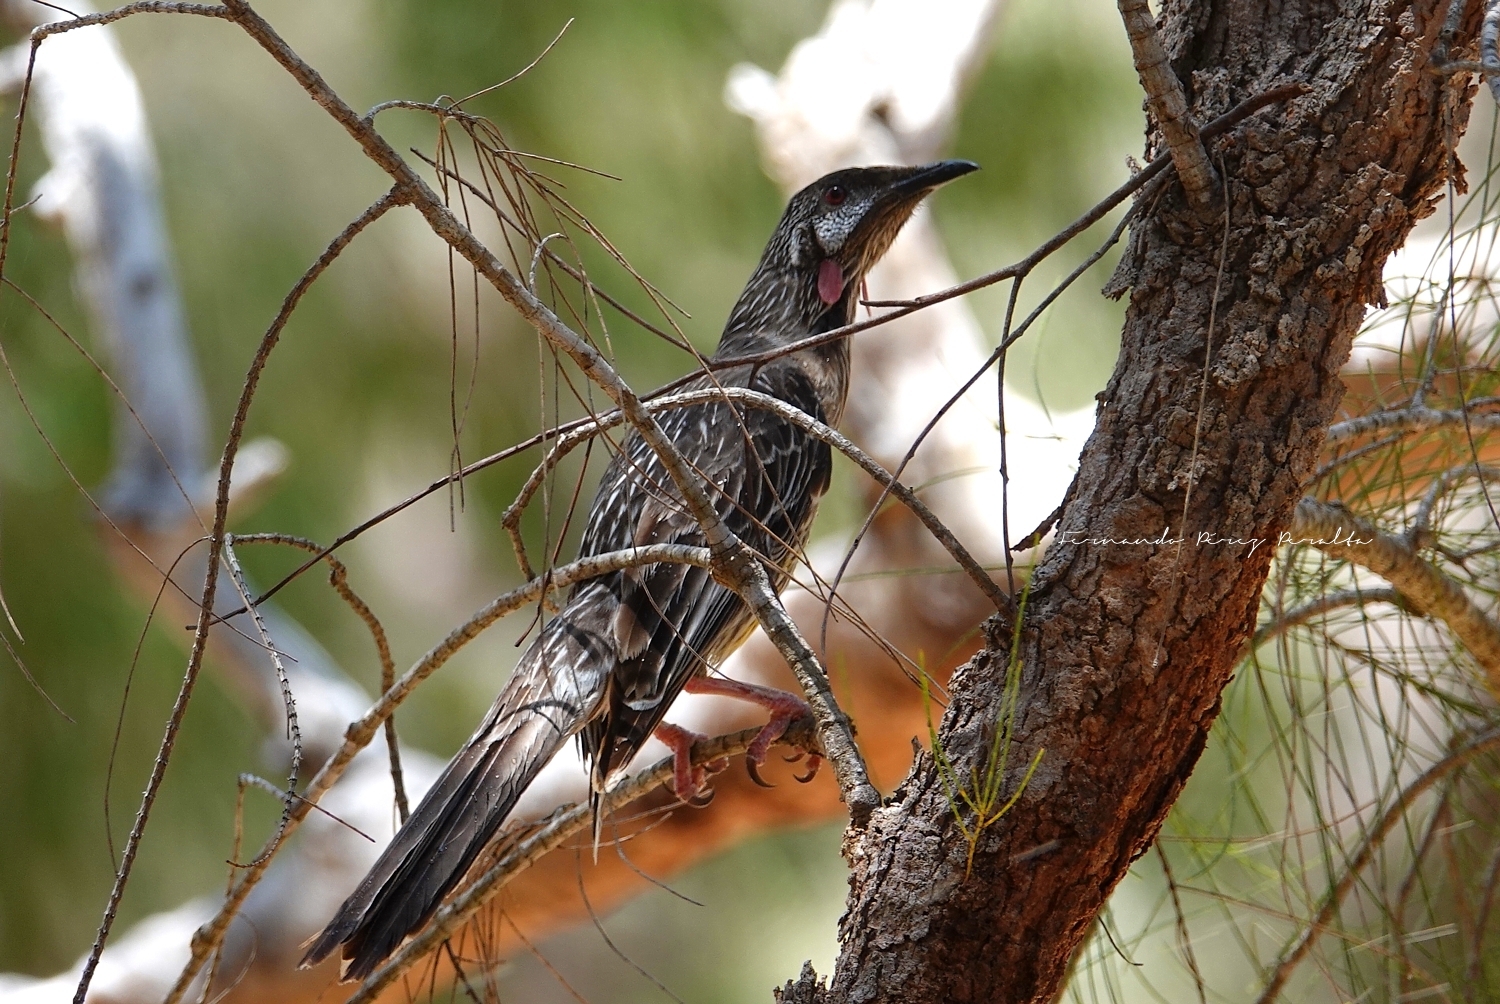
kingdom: Animalia
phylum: Chordata
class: Aves
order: Passeriformes
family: Meliphagidae
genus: Anthochaera
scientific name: Anthochaera carunculata
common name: Red wattlebird
